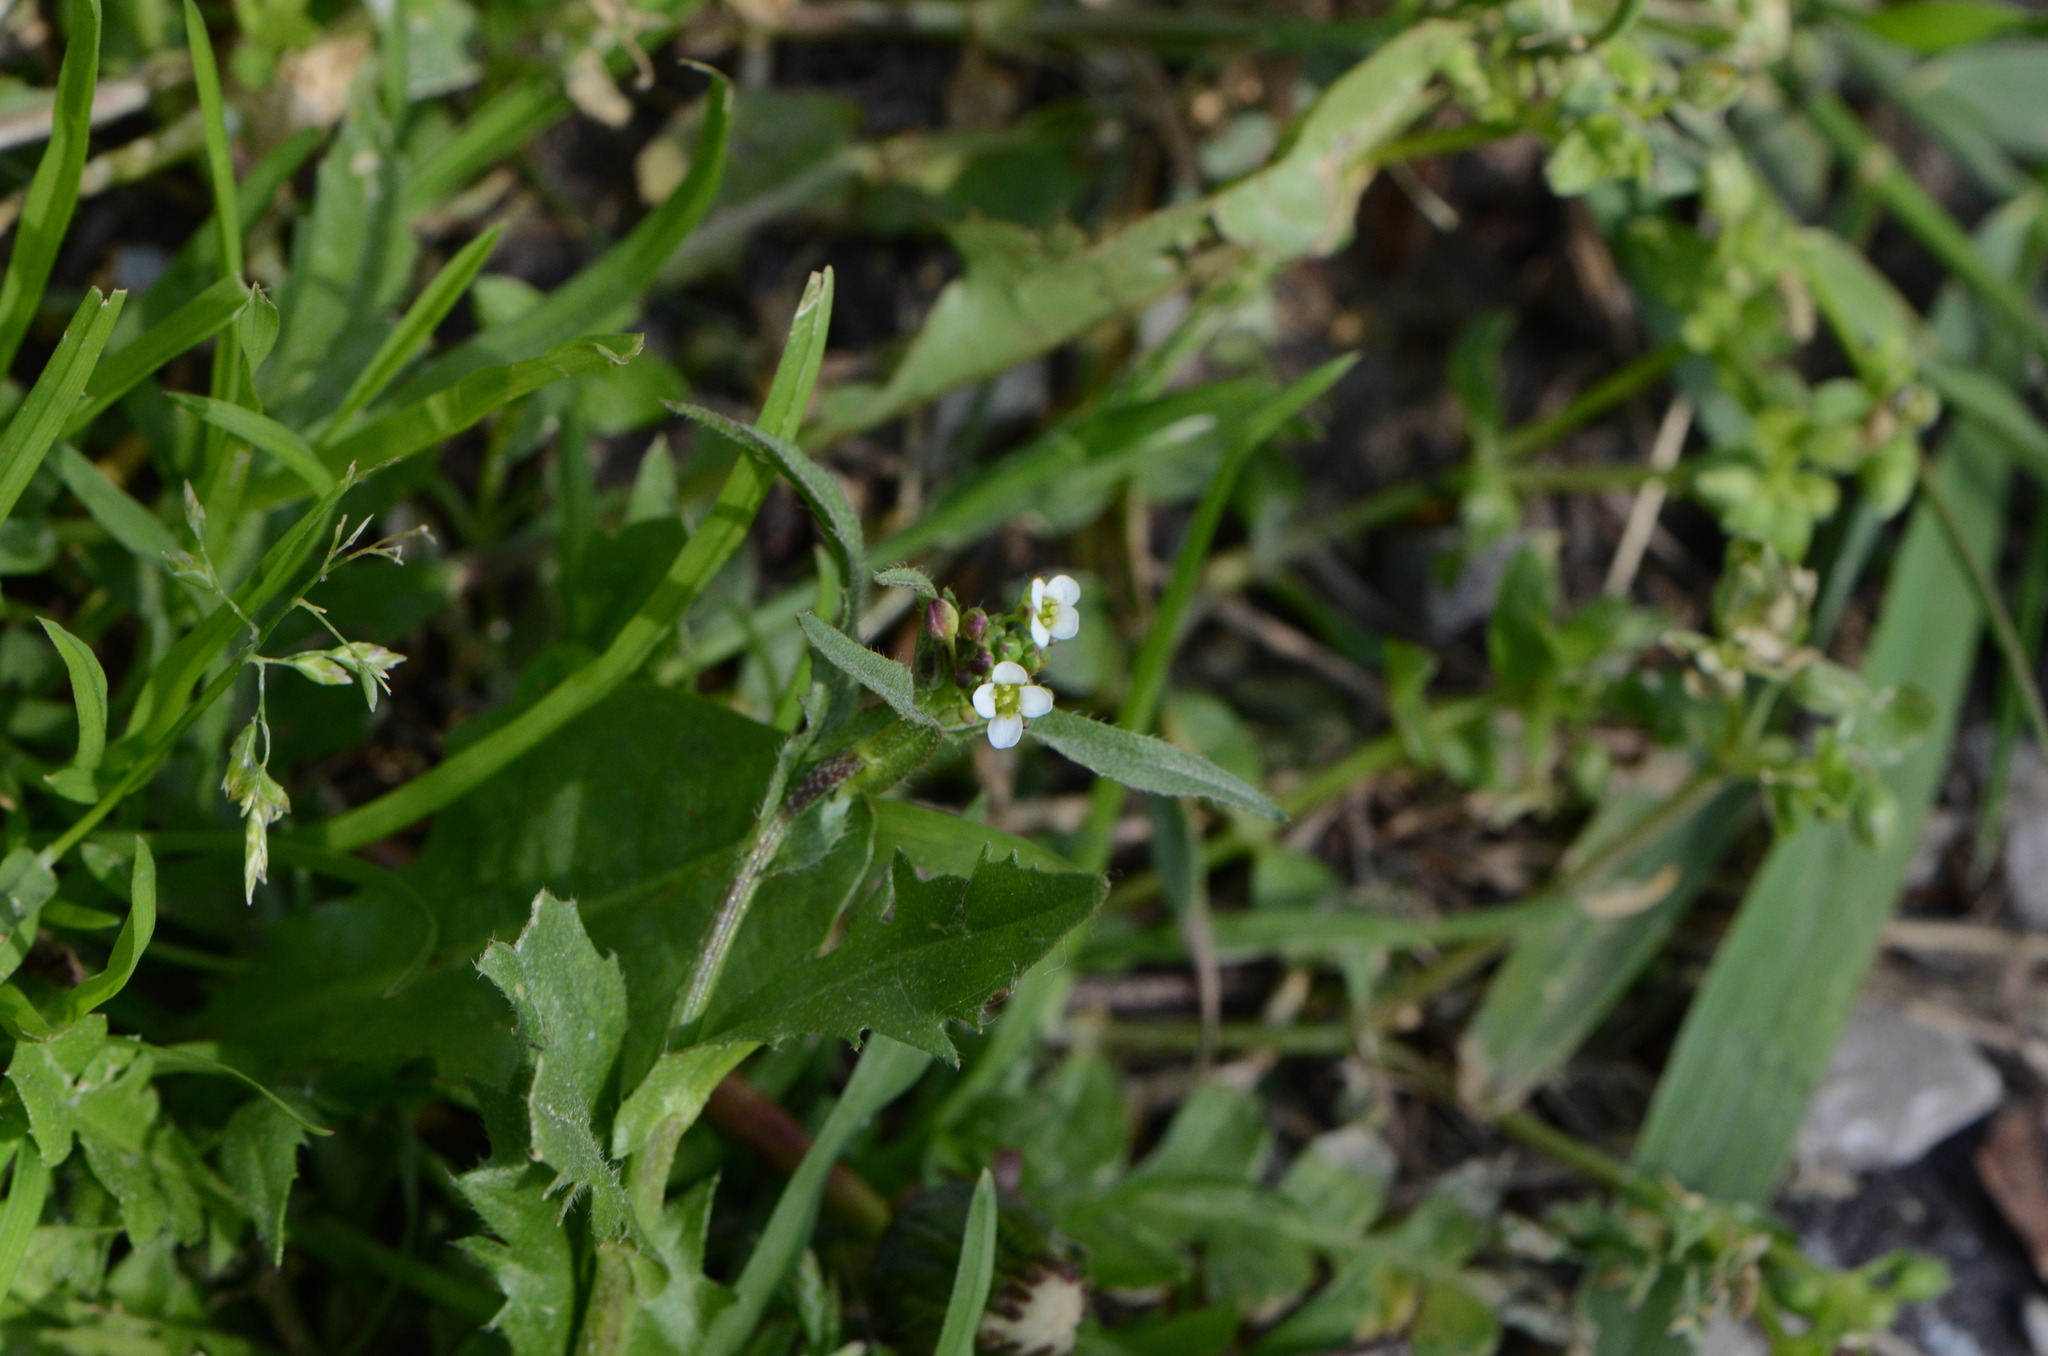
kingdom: Plantae
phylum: Tracheophyta
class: Magnoliopsida
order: Brassicales
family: Brassicaceae
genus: Capsella
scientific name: Capsella bursa-pastoris
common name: Shepherd's purse
